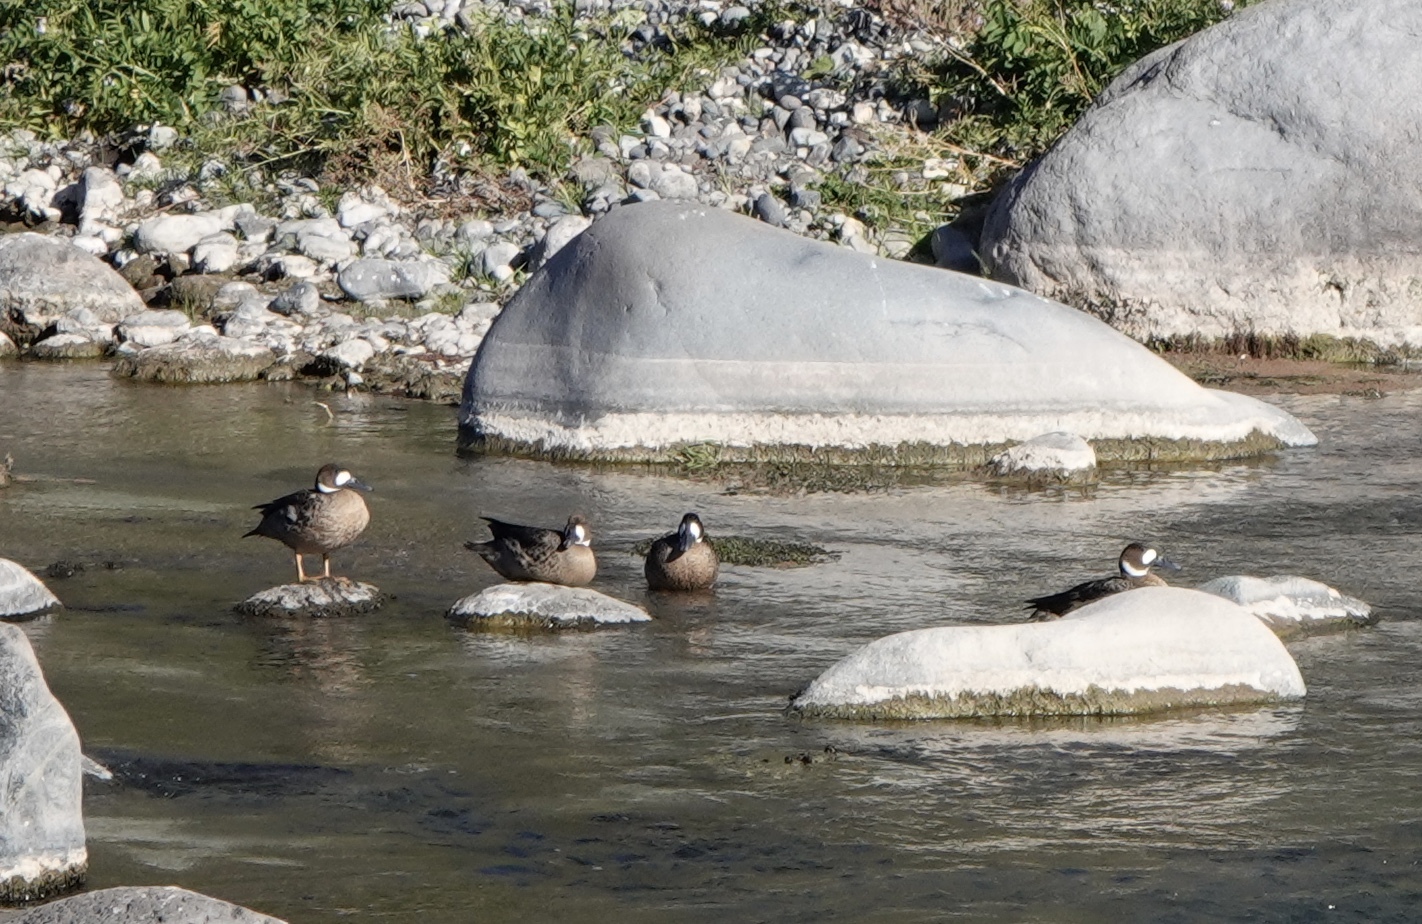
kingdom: Animalia
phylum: Chordata
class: Aves
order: Anseriformes
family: Anatidae
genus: Speculanas
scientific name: Speculanas specularis
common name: Bronze-winged duck
